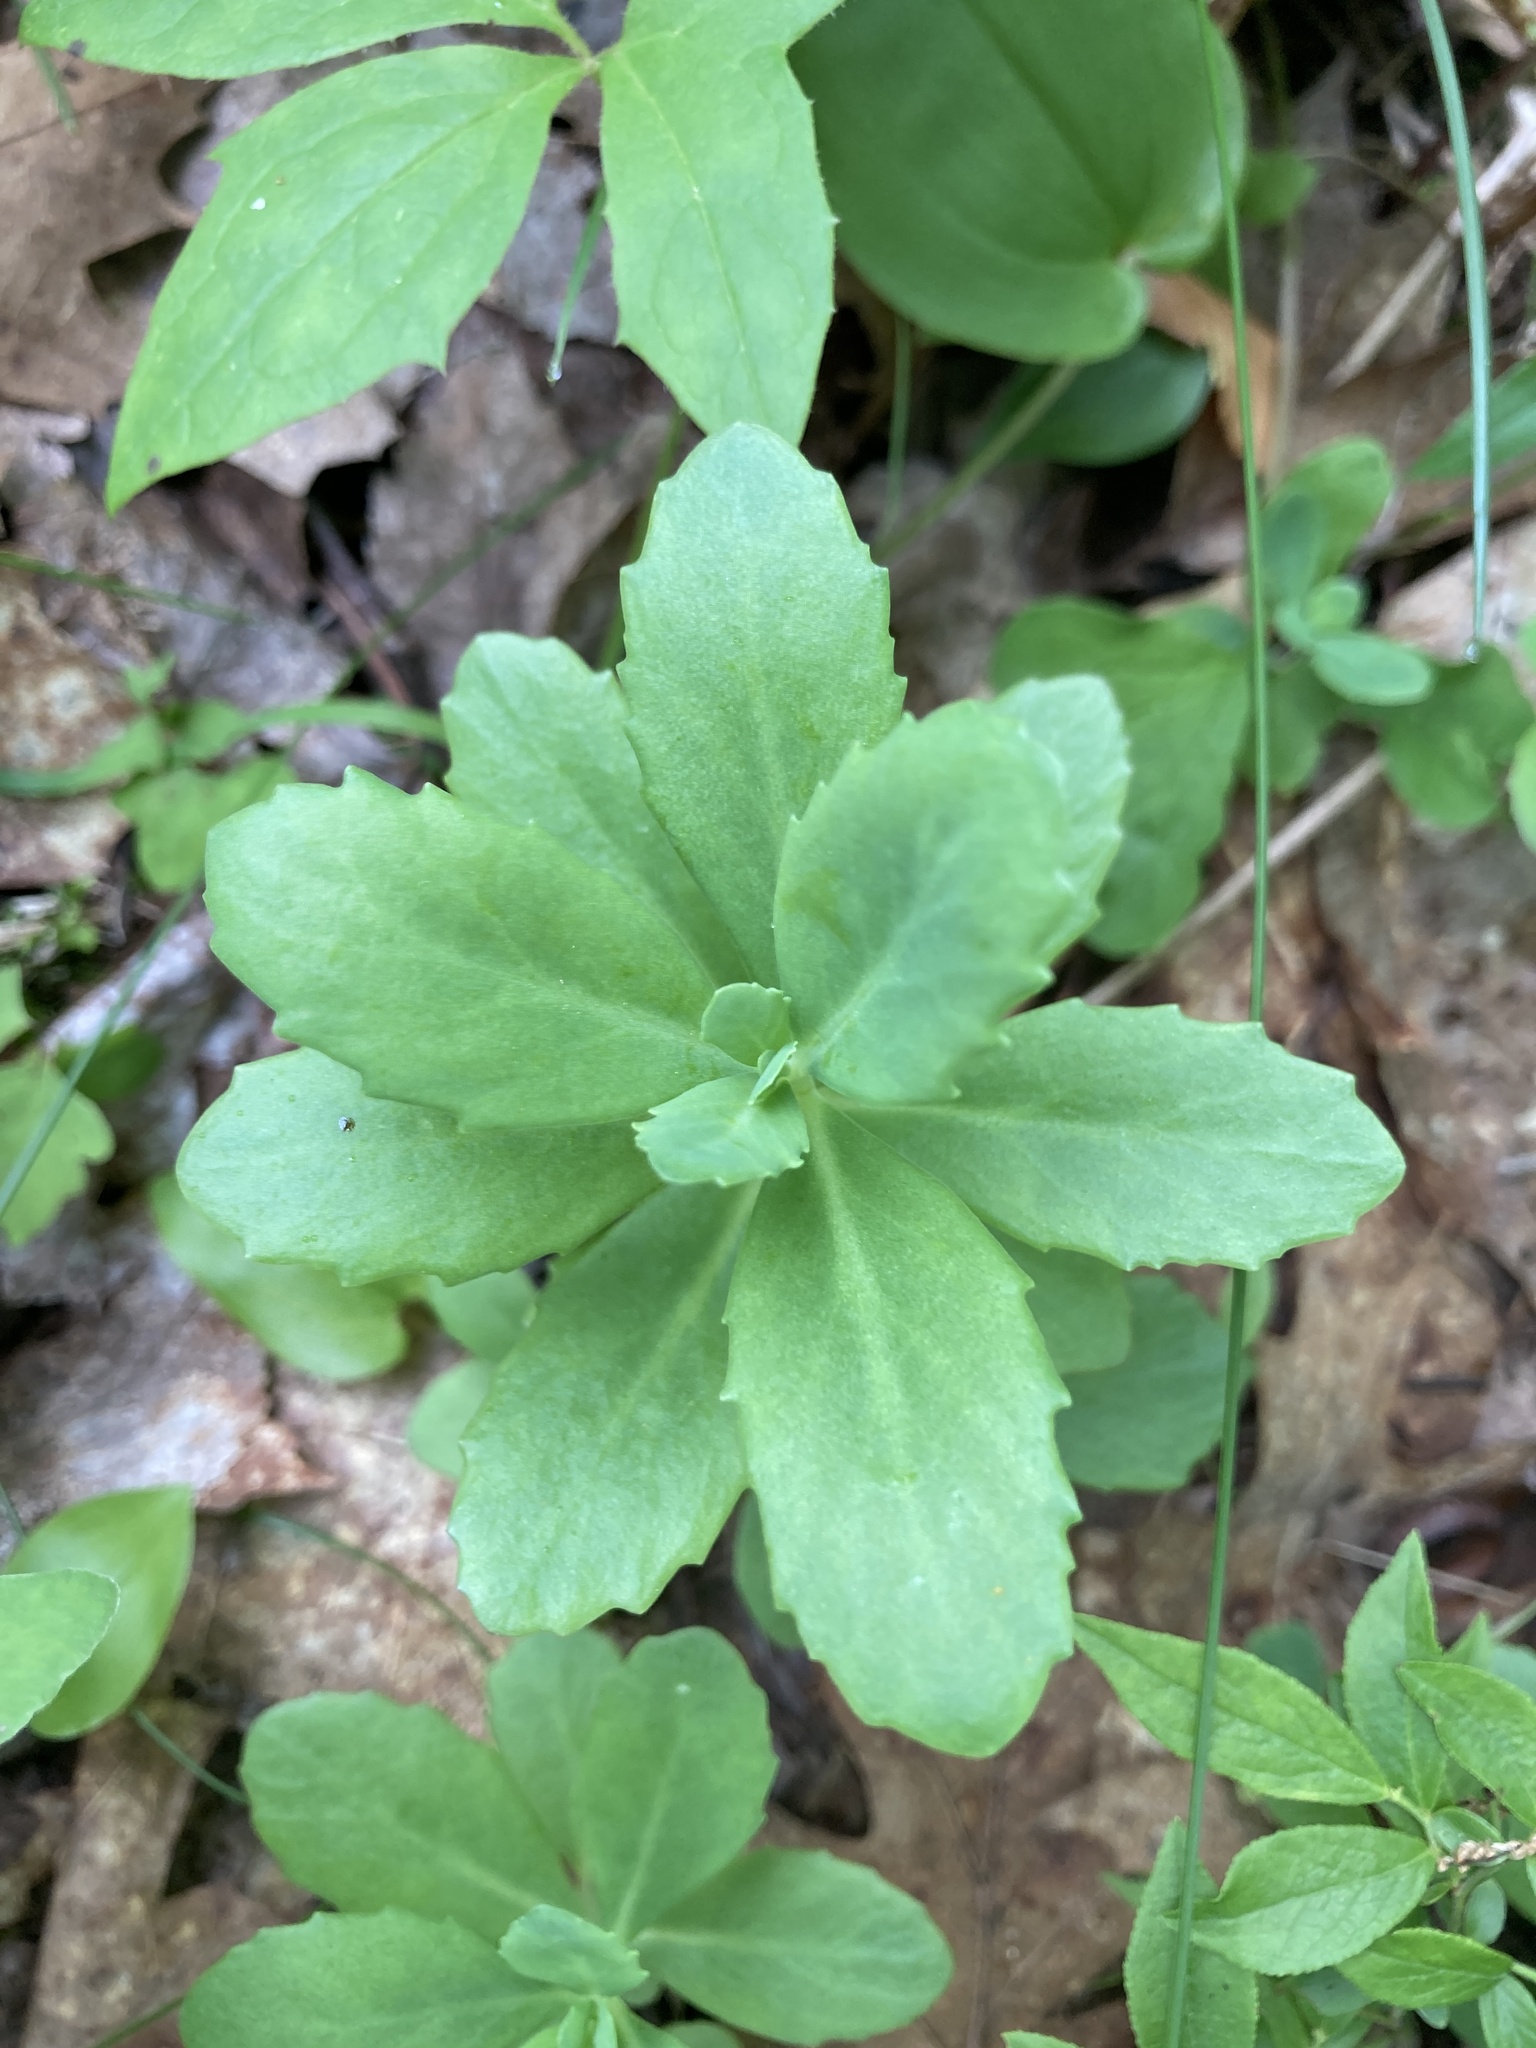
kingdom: Plantae
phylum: Tracheophyta
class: Magnoliopsida
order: Saxifragales
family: Crassulaceae
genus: Hylotelephium
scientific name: Hylotelephium telephium
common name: Live-forever
